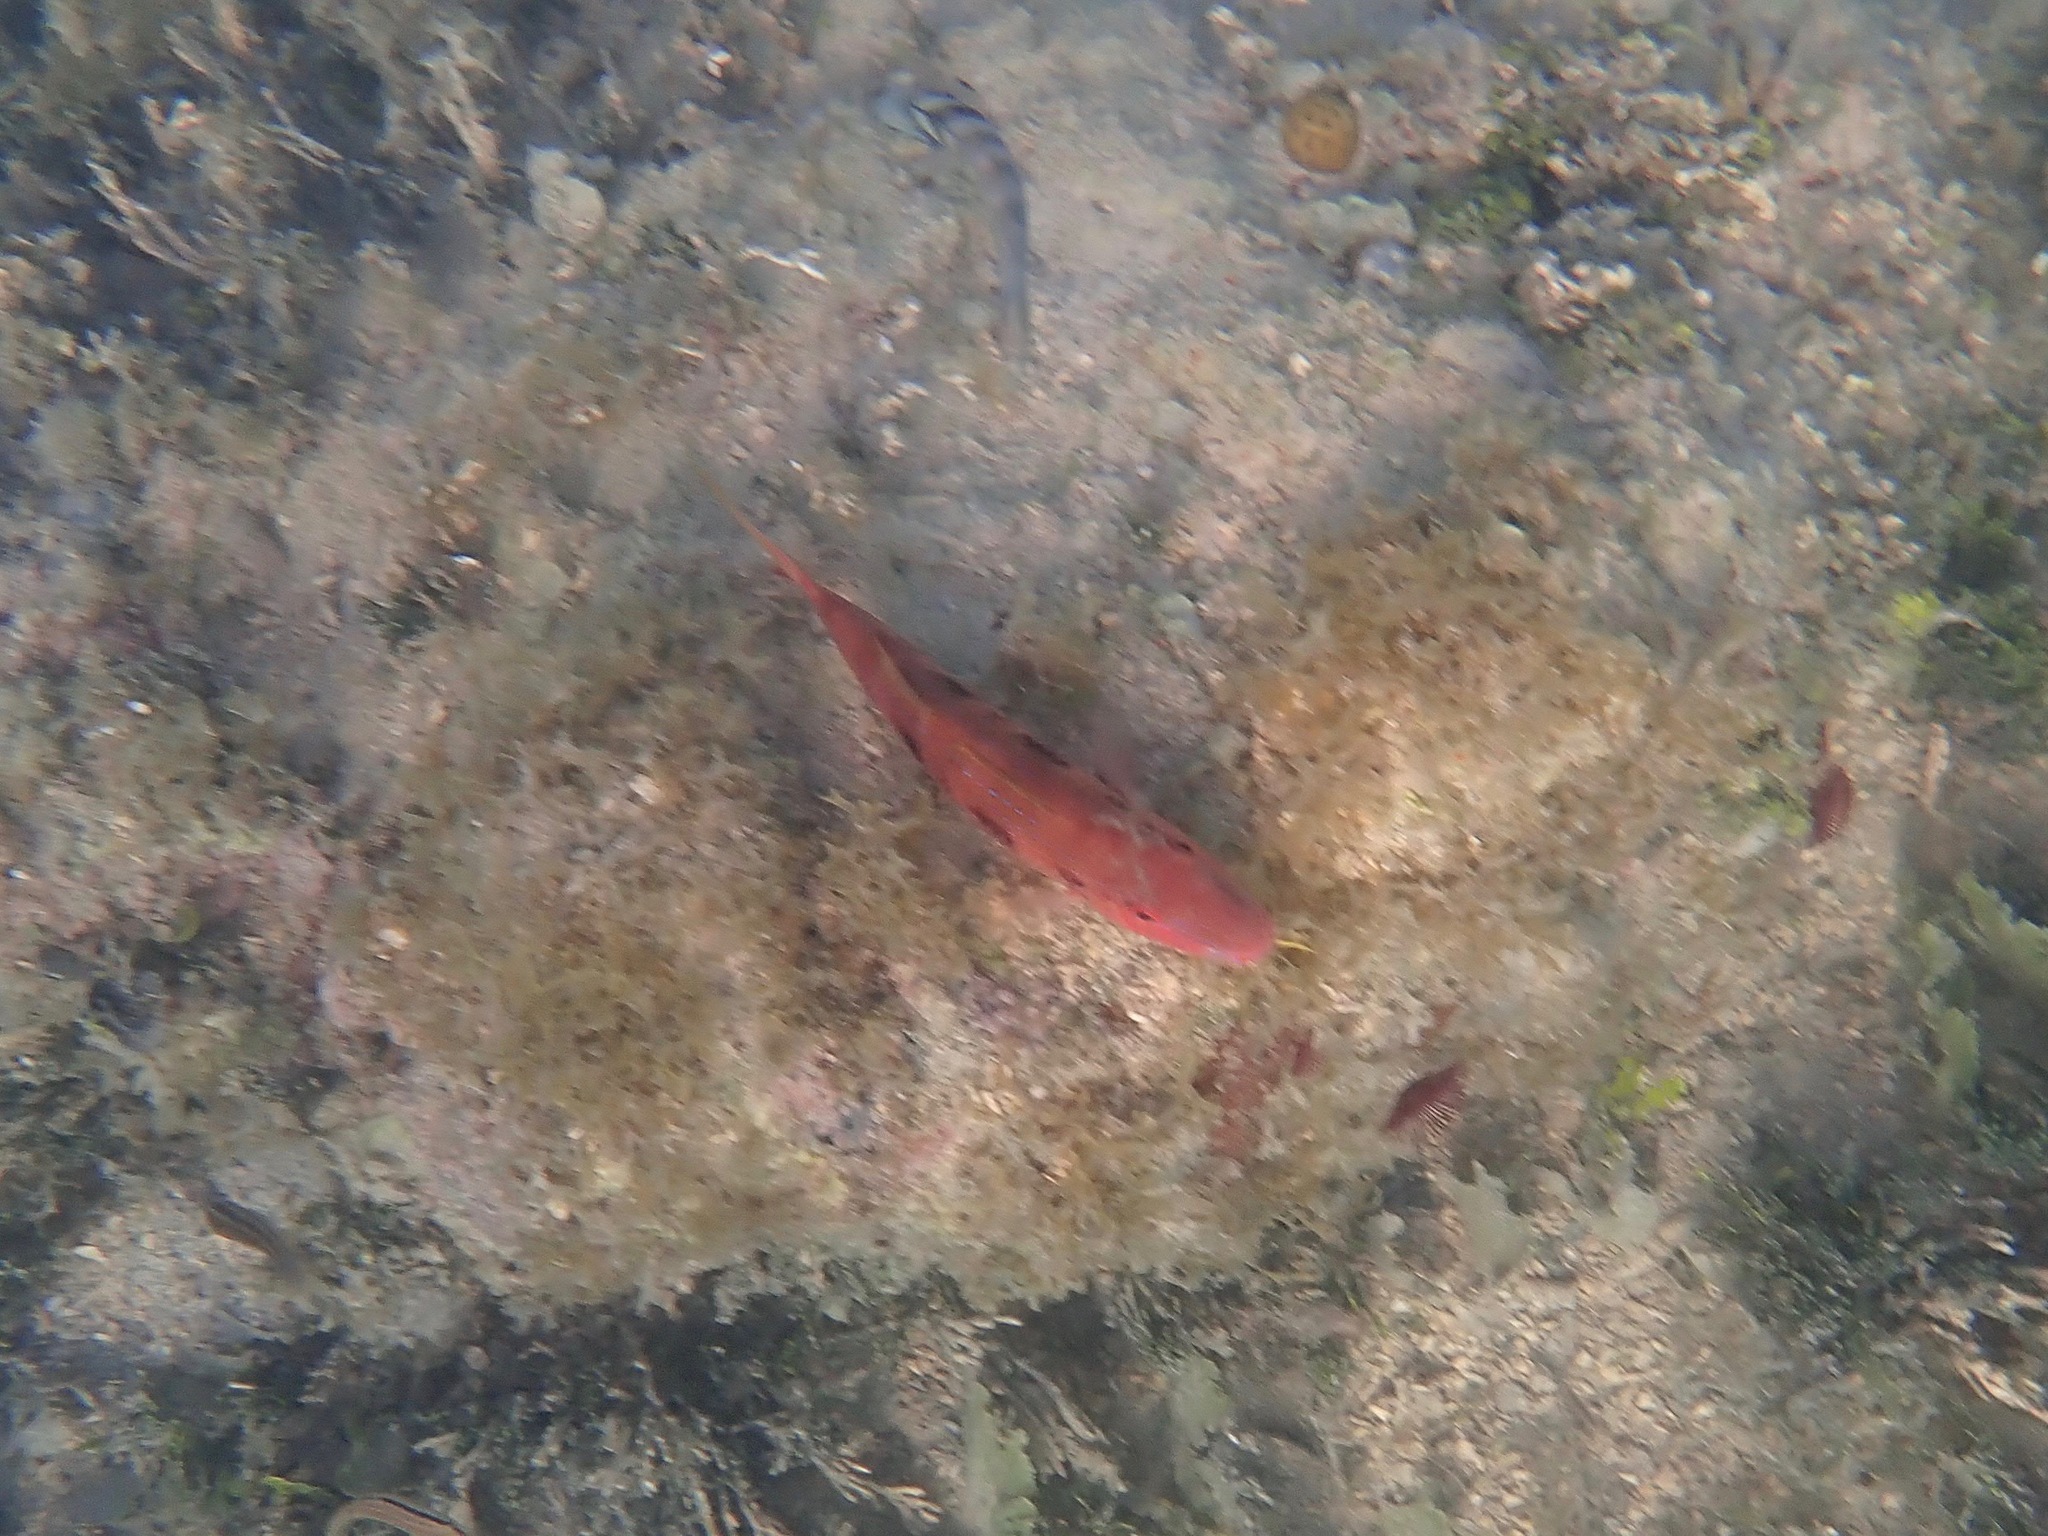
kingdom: Animalia
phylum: Chordata
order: Perciformes
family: Mullidae
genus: Pseudupeneus
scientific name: Pseudupeneus maculatus
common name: Spotted goatfish
